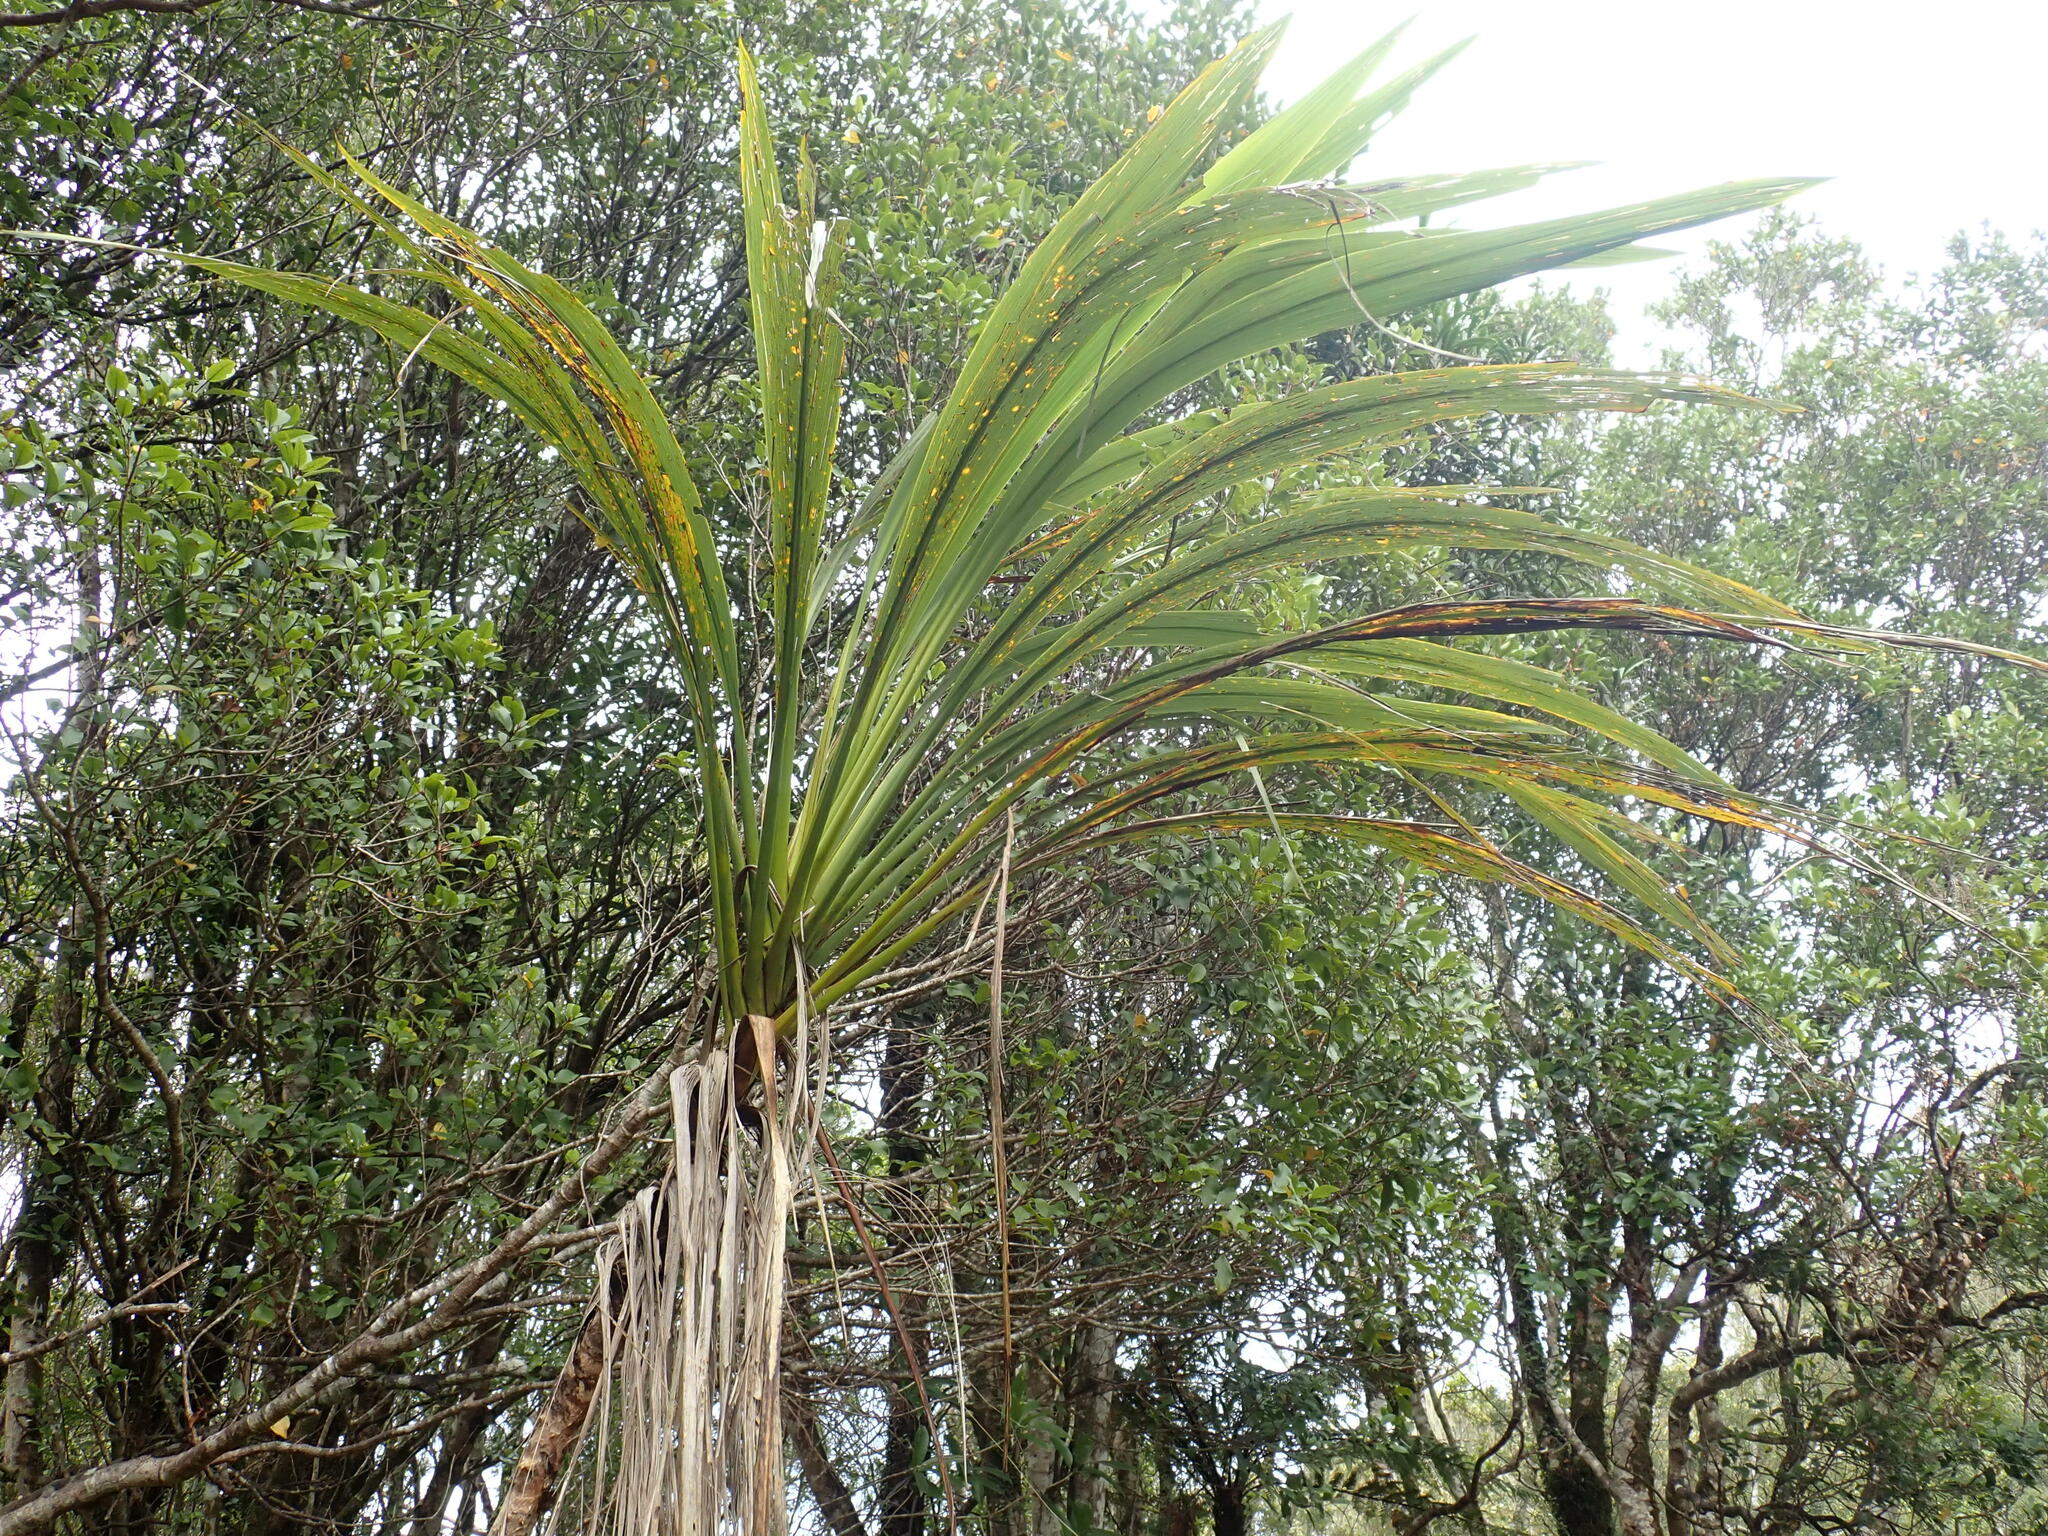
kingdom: Plantae
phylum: Tracheophyta
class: Liliopsida
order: Asparagales
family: Asparagaceae
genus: Cordyline
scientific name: Cordyline banksii
